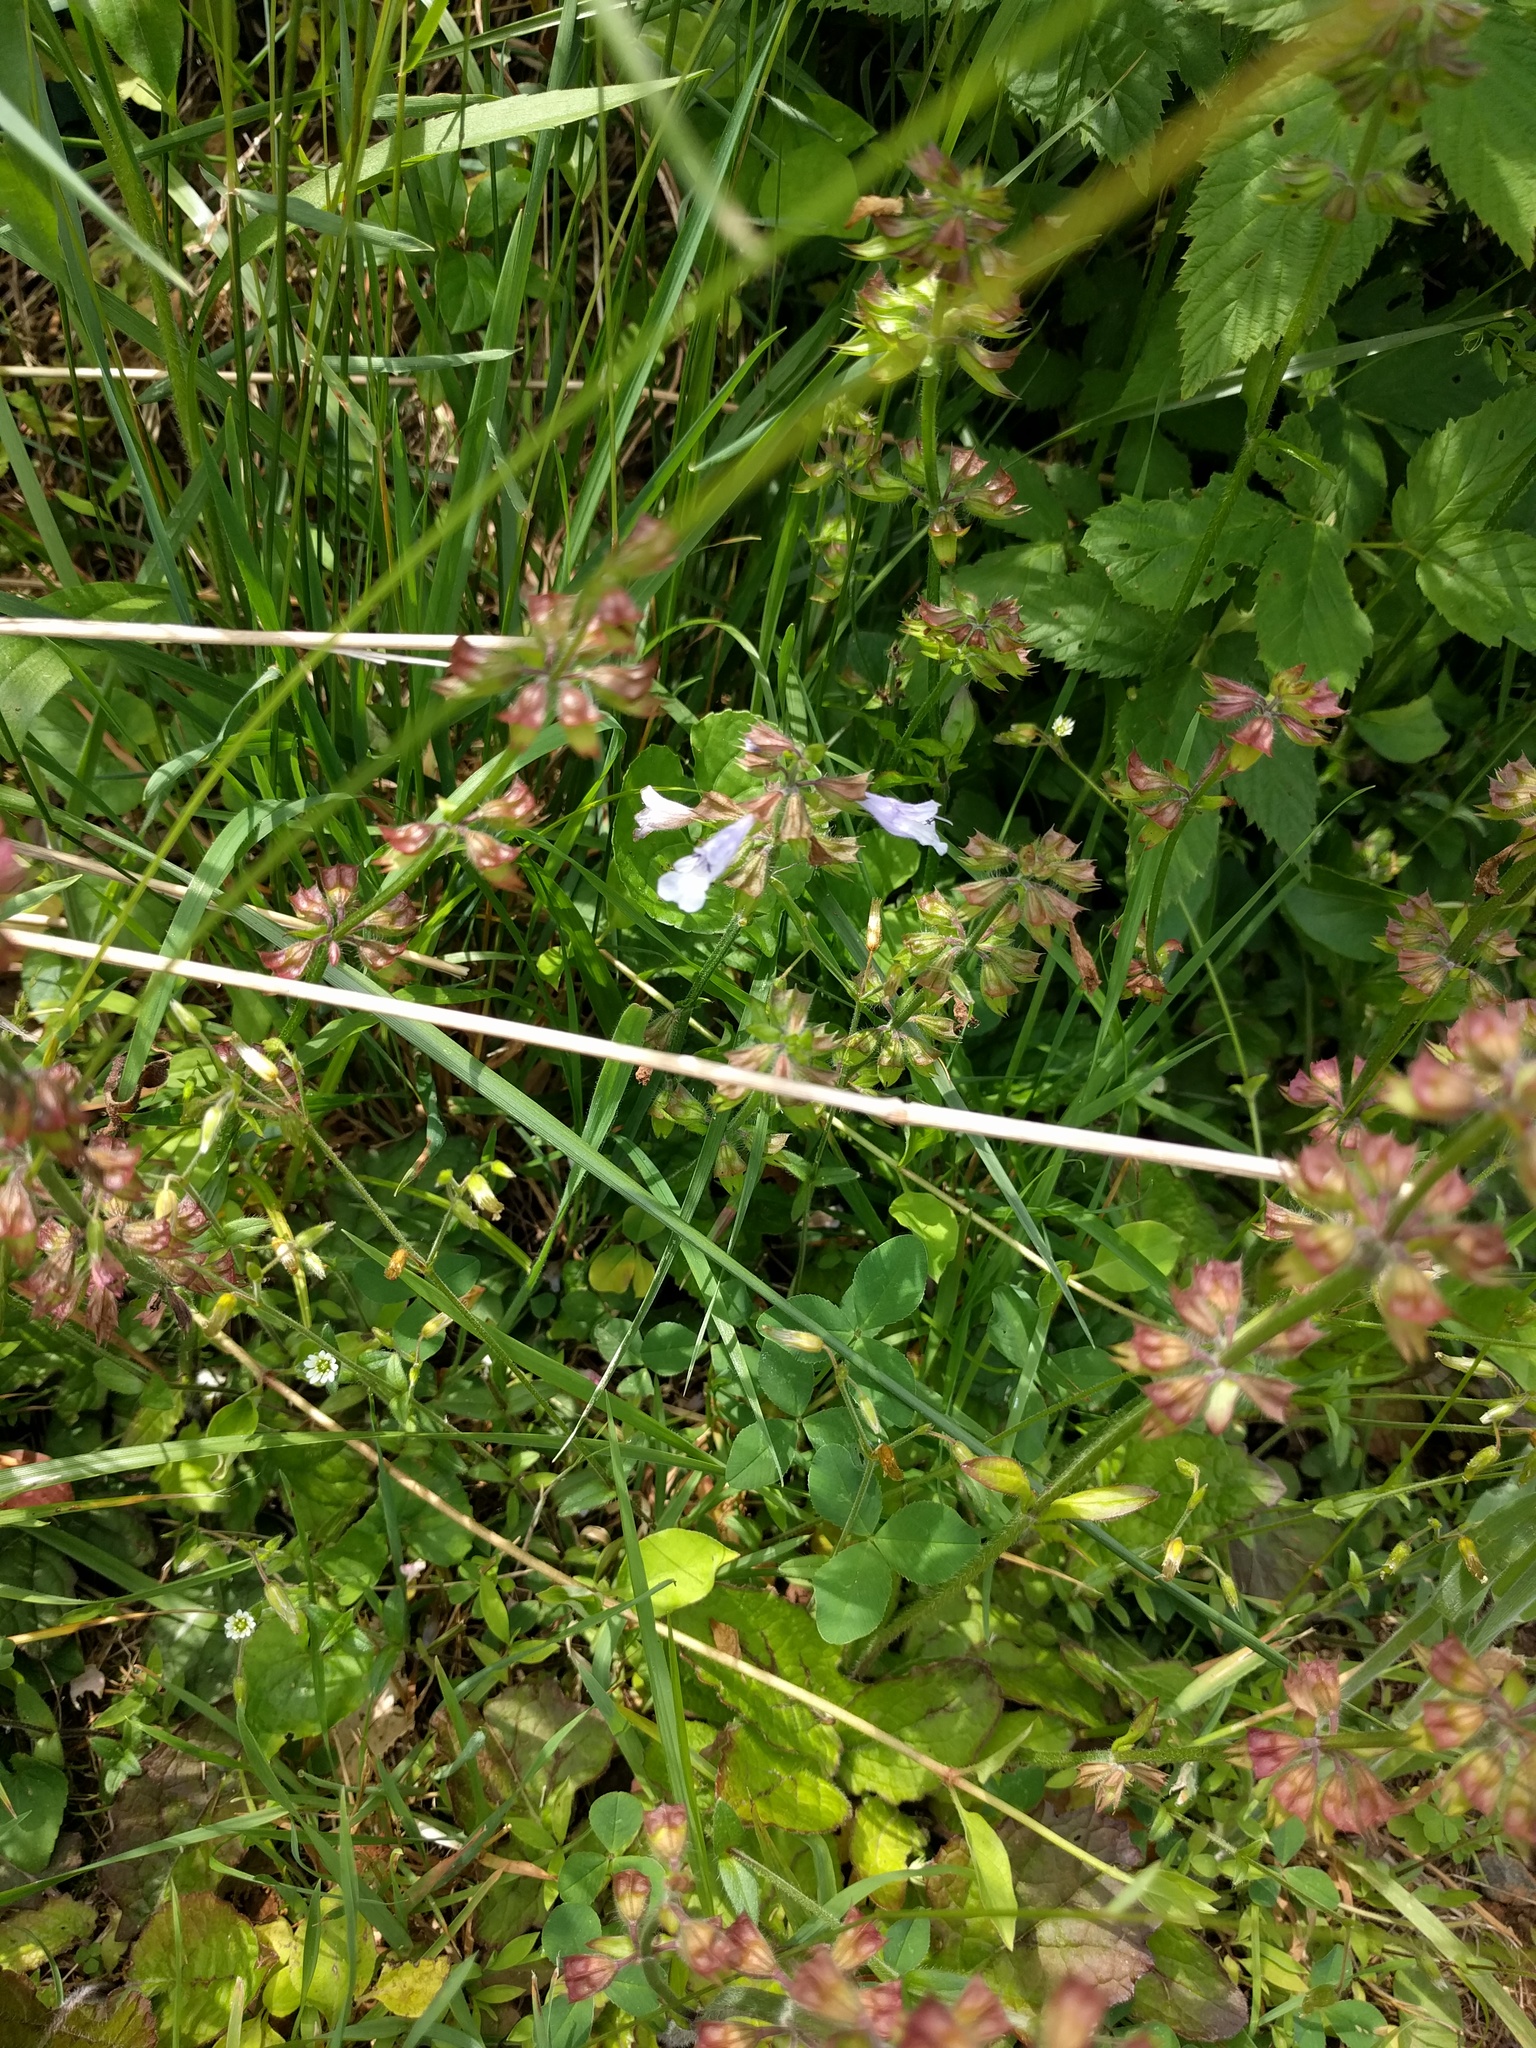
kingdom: Plantae
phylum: Tracheophyta
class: Magnoliopsida
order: Lamiales
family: Lamiaceae
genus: Salvia
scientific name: Salvia lyrata
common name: Cancerweed
